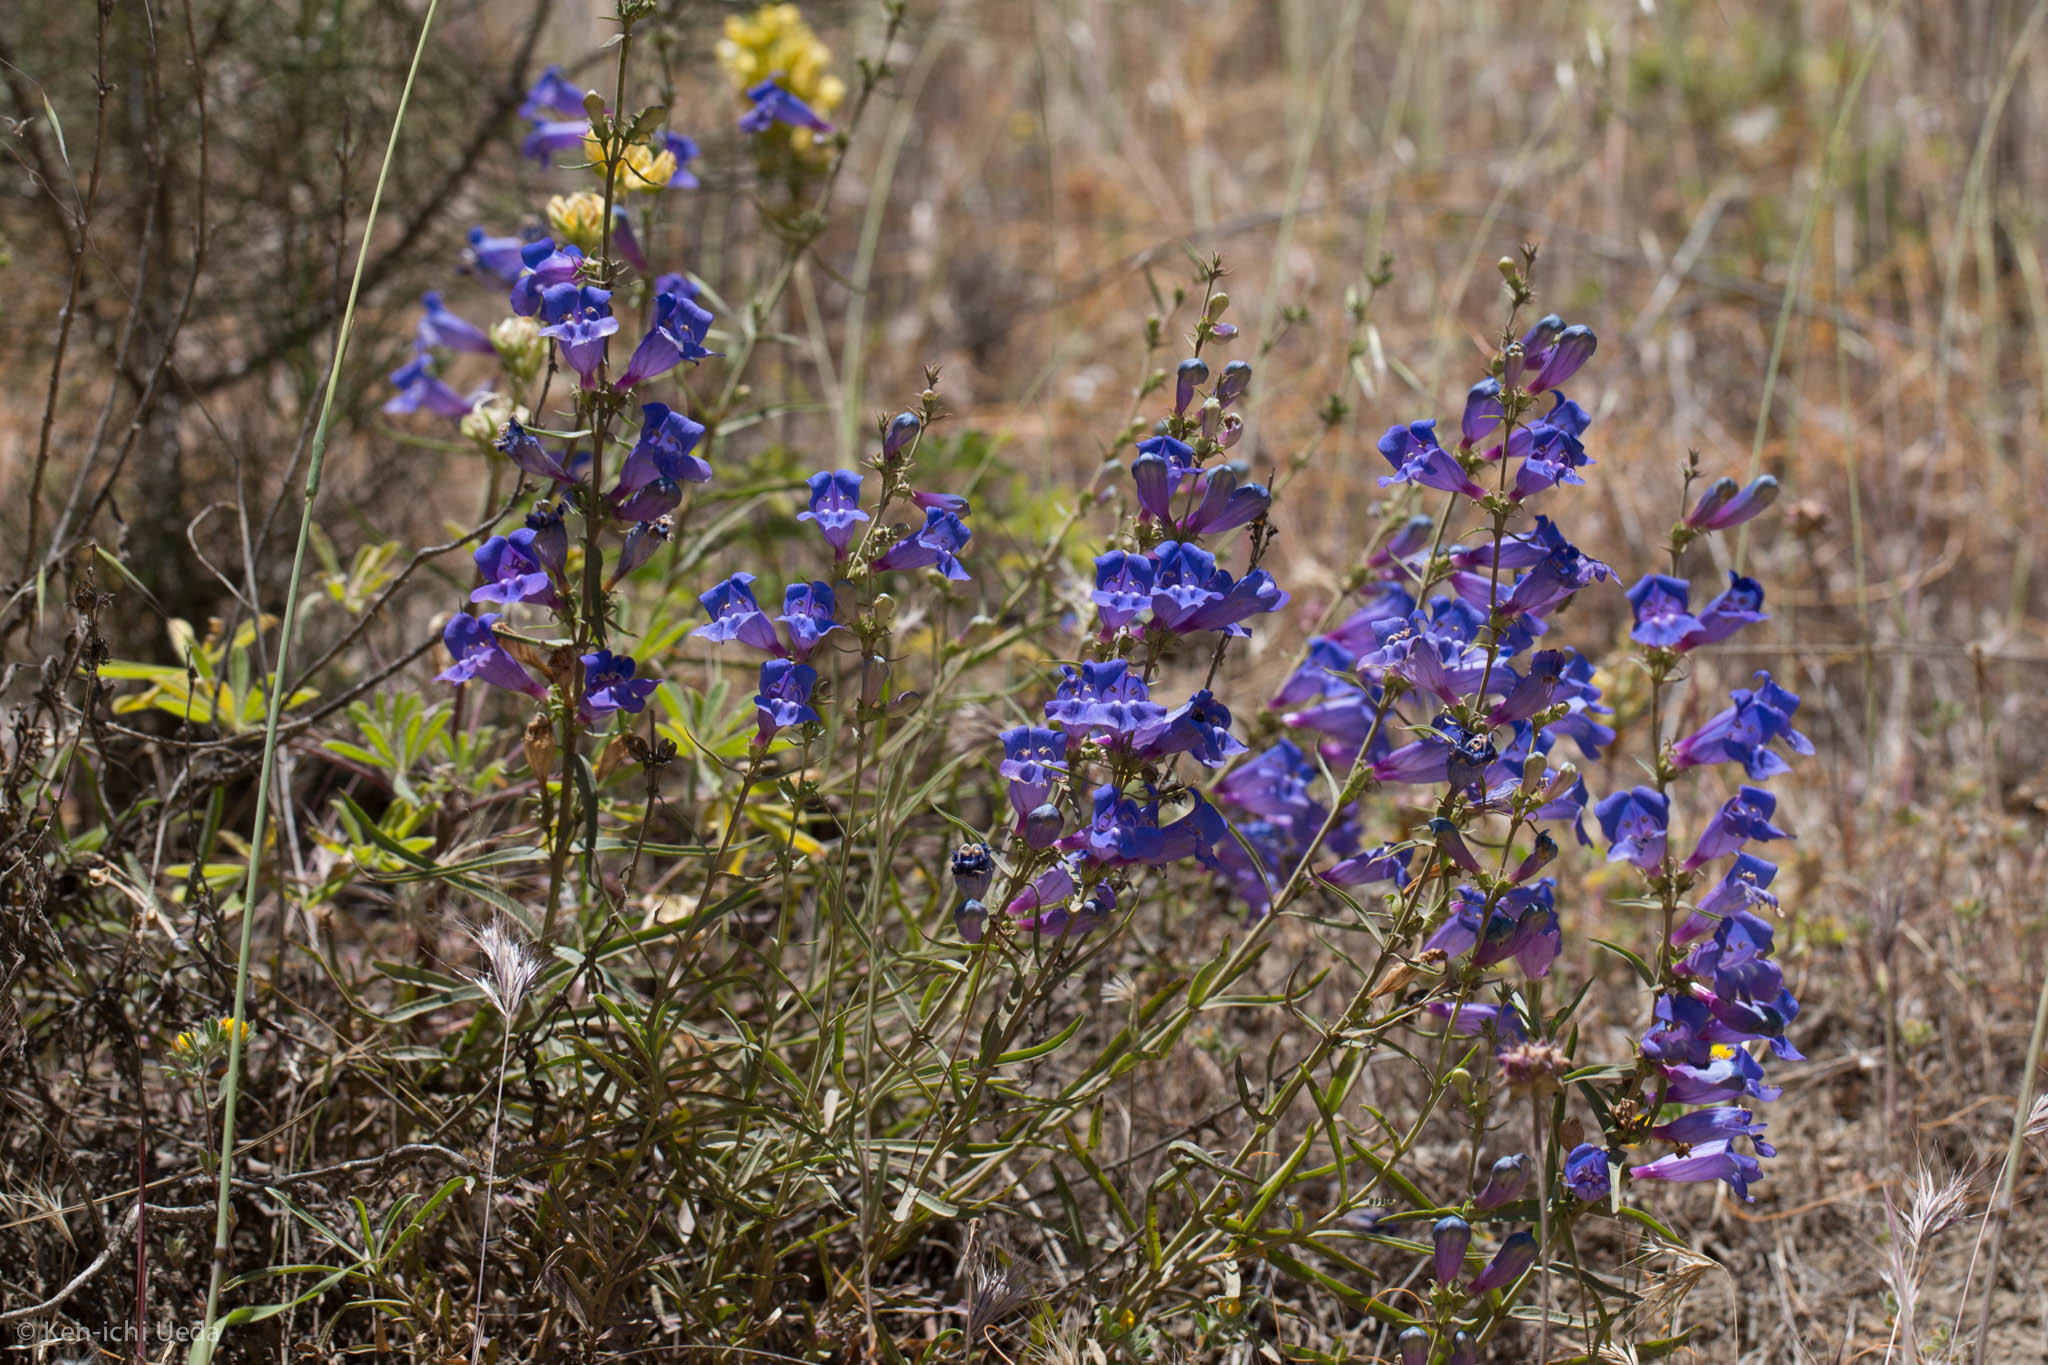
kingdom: Plantae
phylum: Tracheophyta
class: Magnoliopsida
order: Lamiales
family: Plantaginaceae
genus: Penstemon
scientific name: Penstemon heterophyllus
